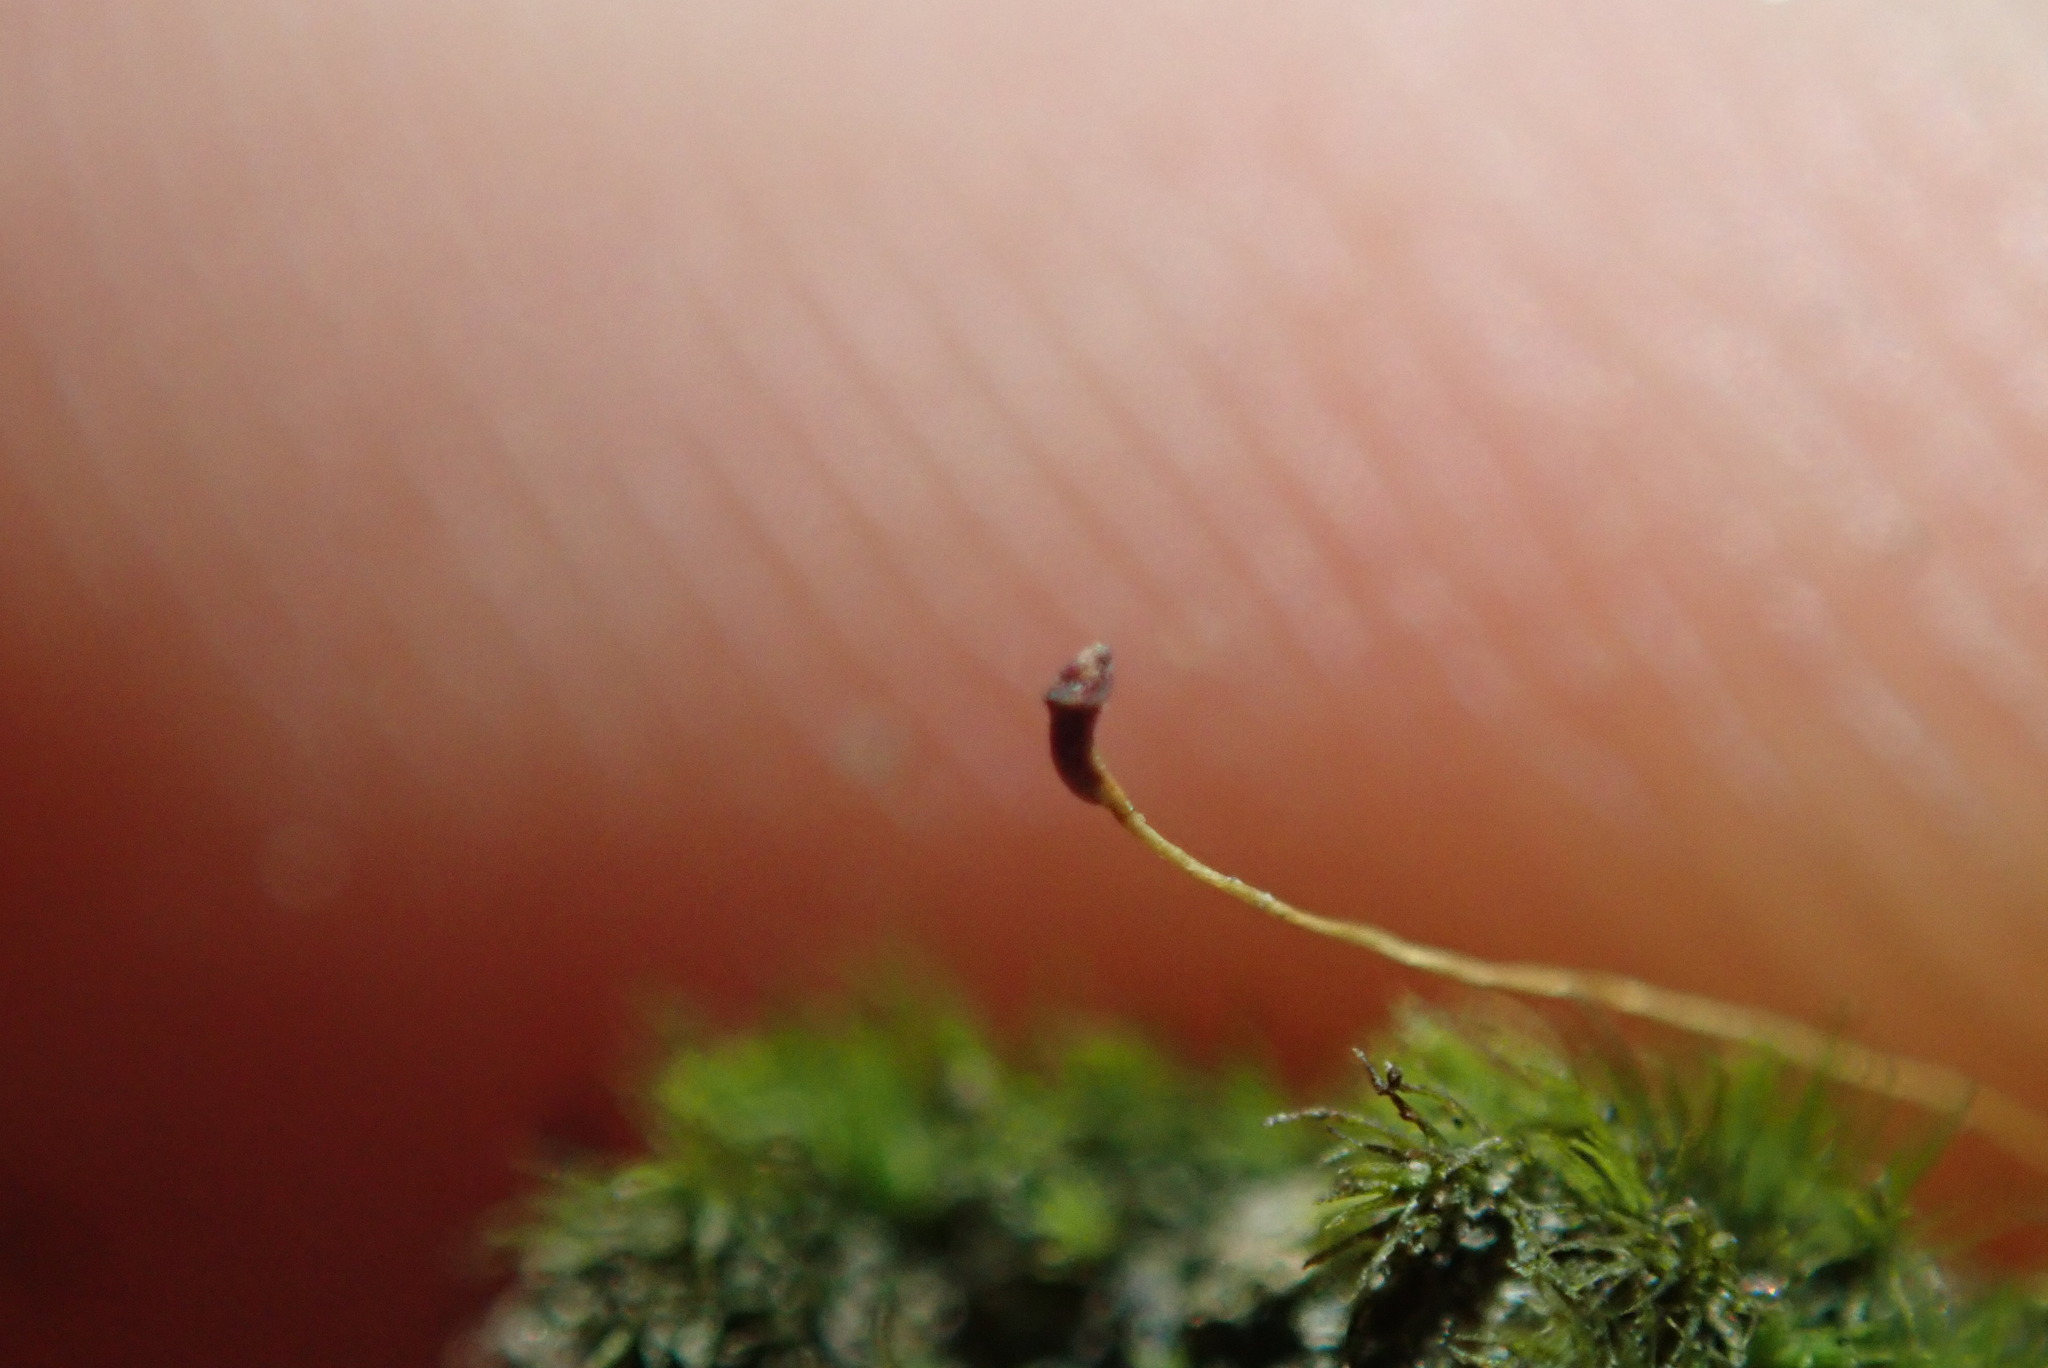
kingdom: Plantae
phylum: Bryophyta
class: Bryopsida
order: Dicranales
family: Dicranellaceae
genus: Dicranella
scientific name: Dicranella heteromalla
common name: Silky forklet moss
